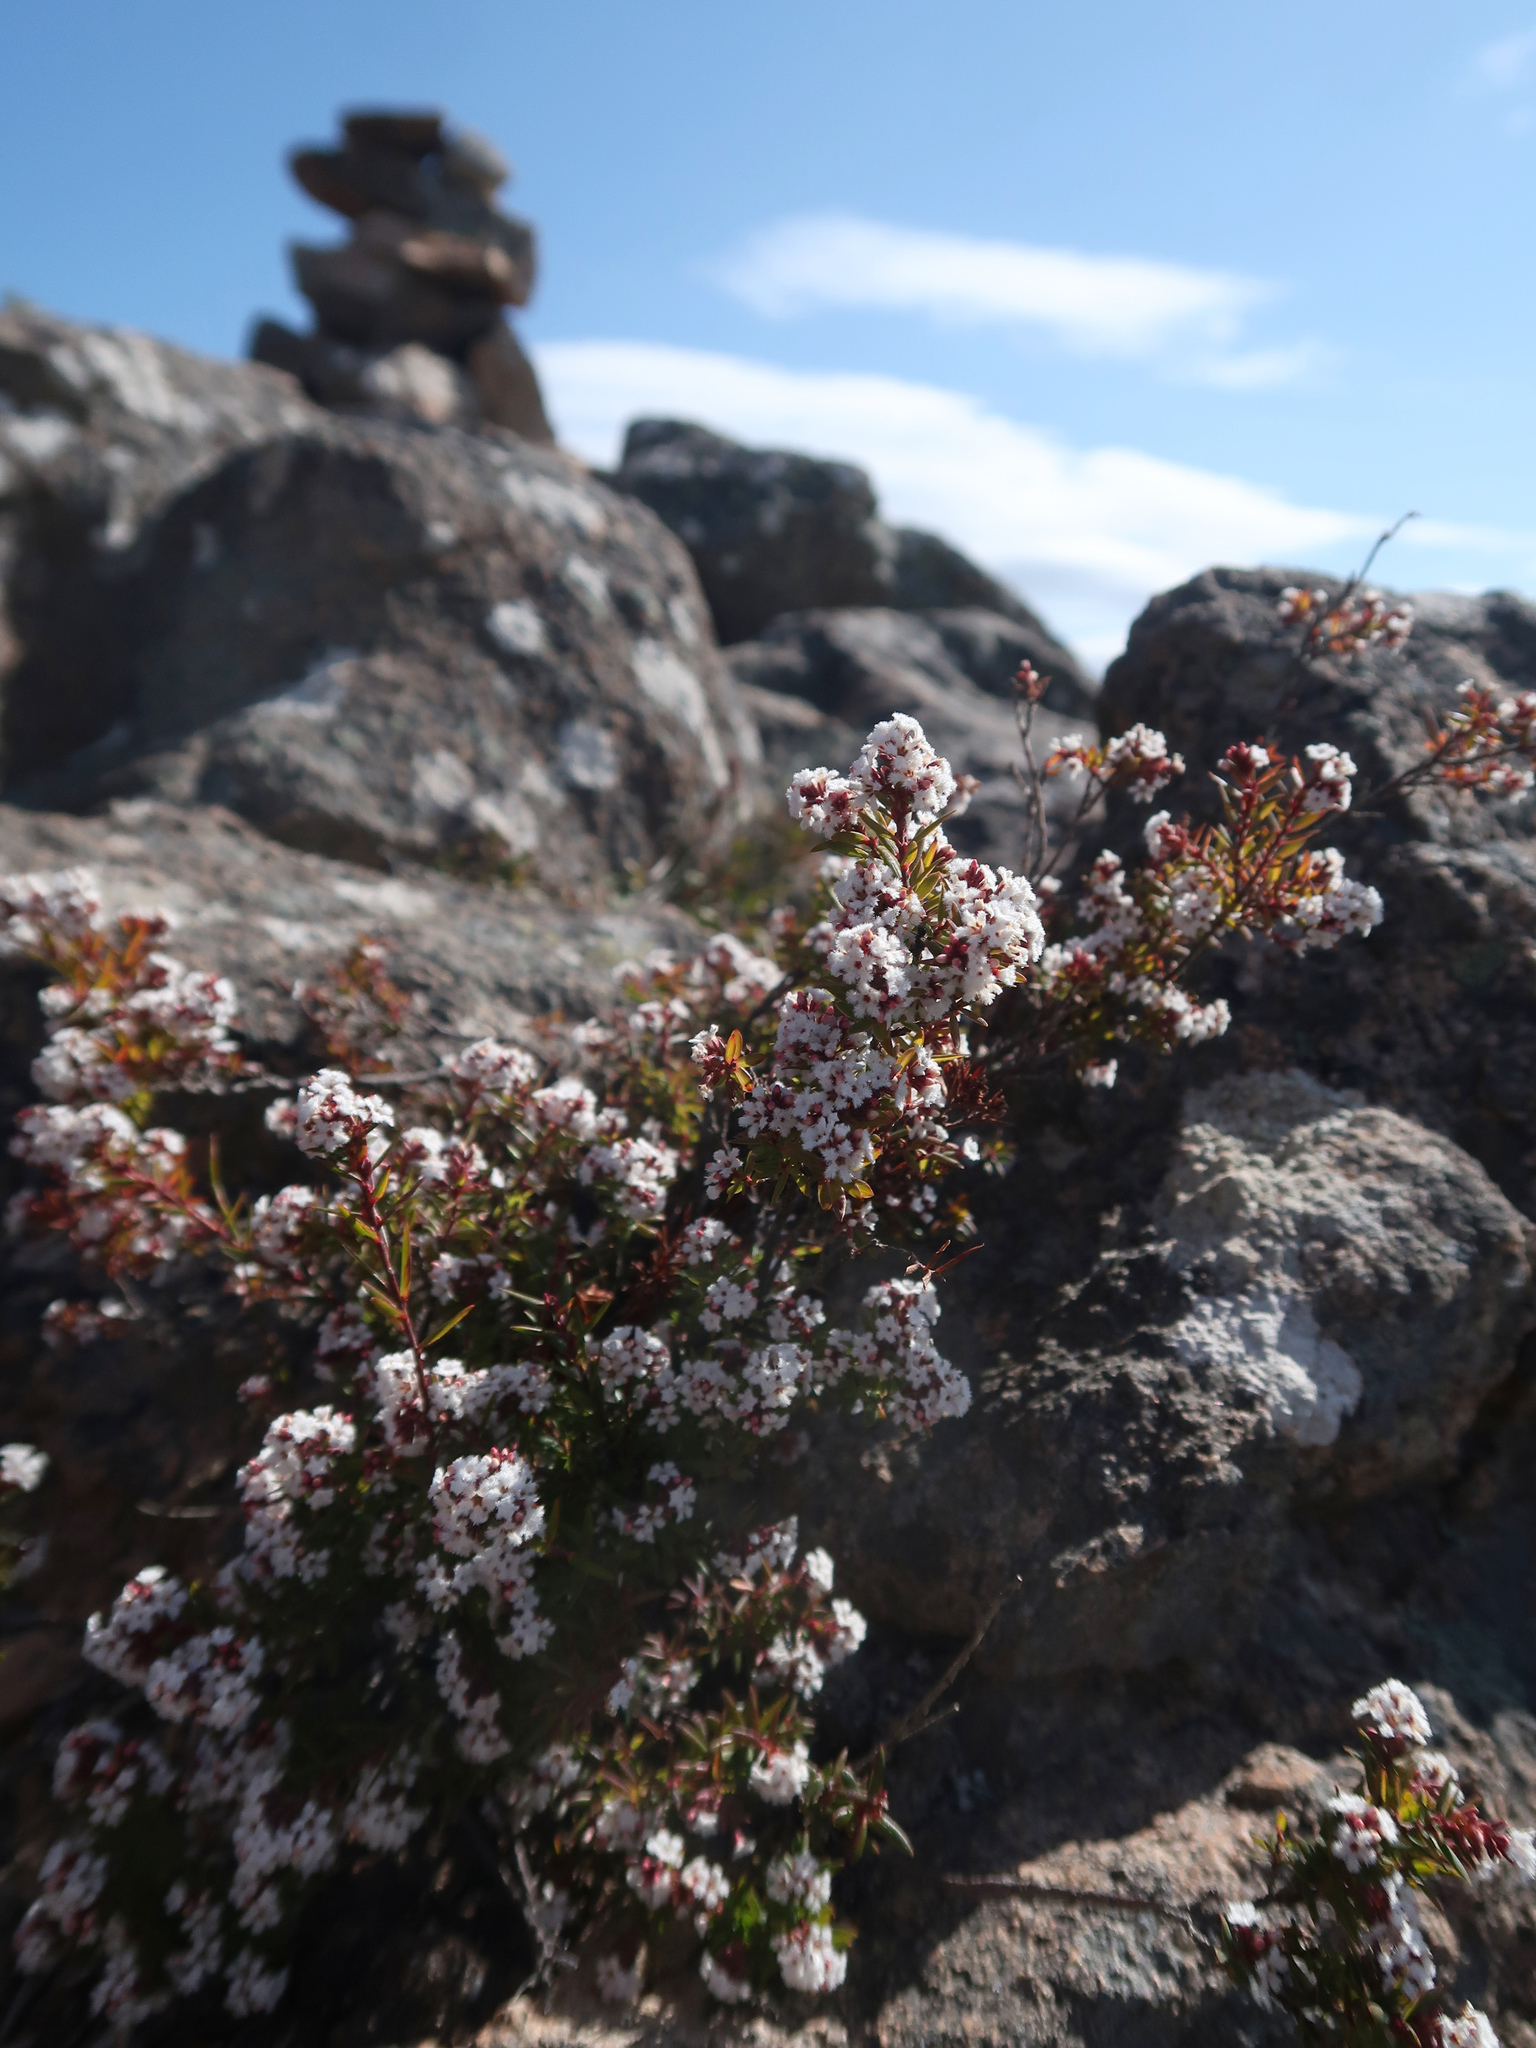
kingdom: Plantae
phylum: Tracheophyta
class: Magnoliopsida
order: Ericales
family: Ericaceae
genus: Leucopogon
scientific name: Leucopogon collinus
